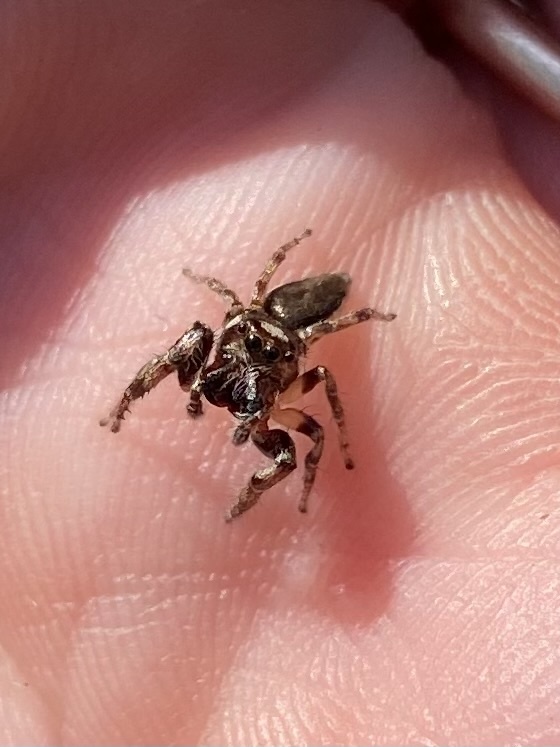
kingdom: Animalia
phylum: Arthropoda
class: Arachnida
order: Araneae
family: Salticidae
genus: Eris
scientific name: Eris militaris
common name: Bronze jumper
